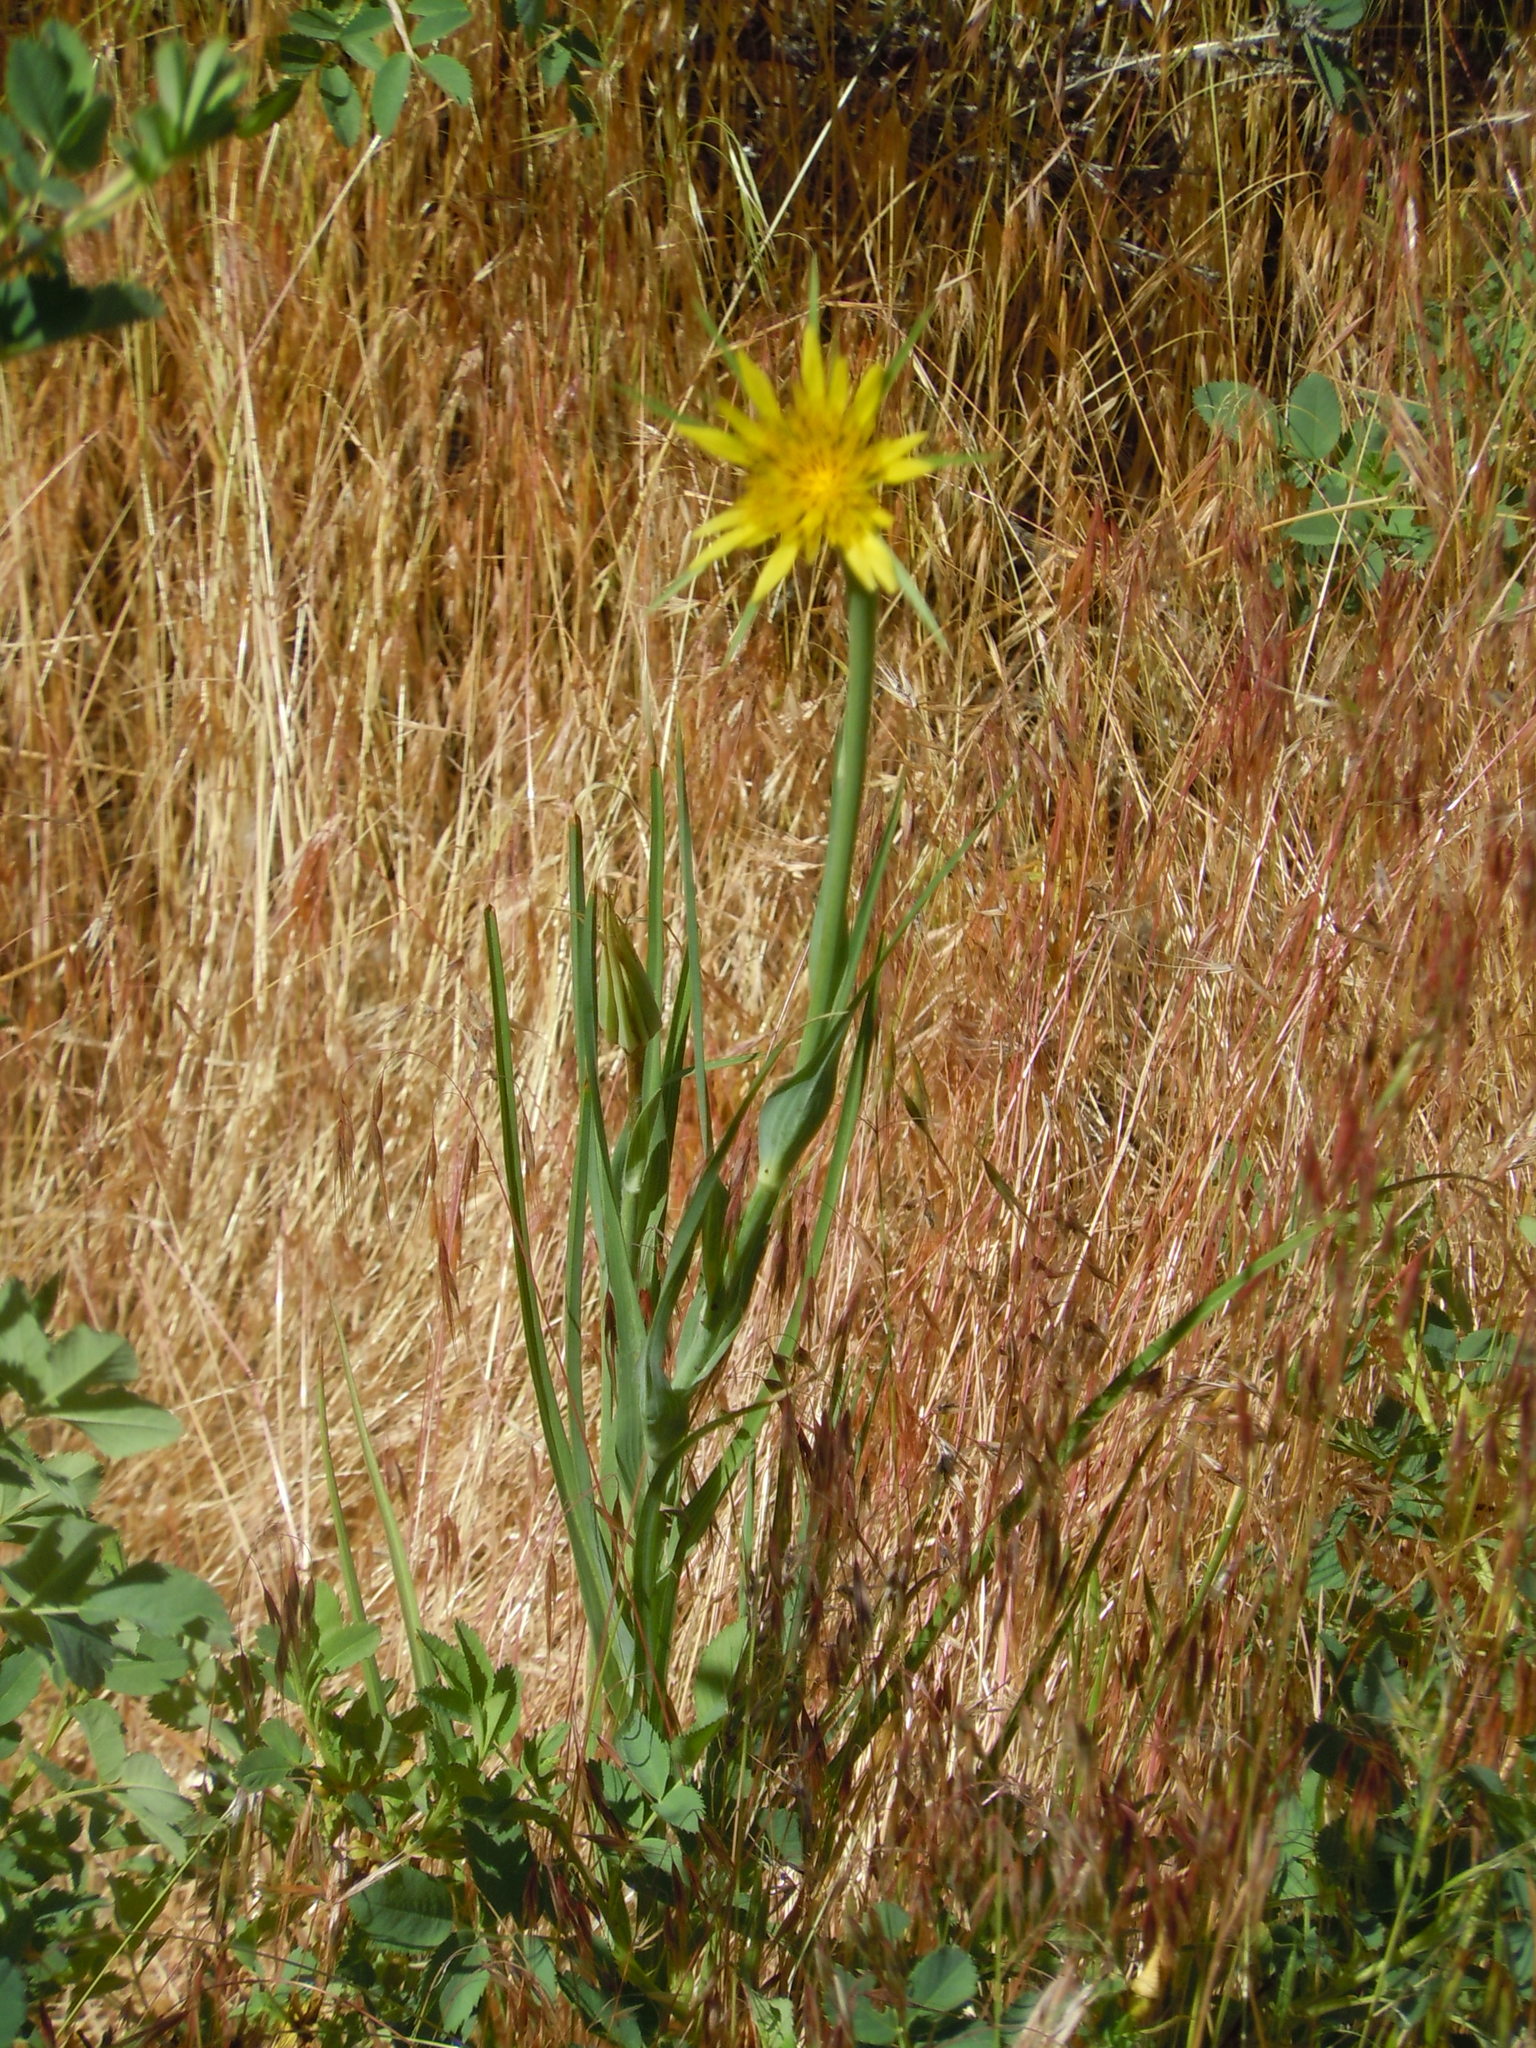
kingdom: Plantae
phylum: Tracheophyta
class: Magnoliopsida
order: Asterales
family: Asteraceae
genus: Tragopogon
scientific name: Tragopogon dubius
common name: Yellow salsify
